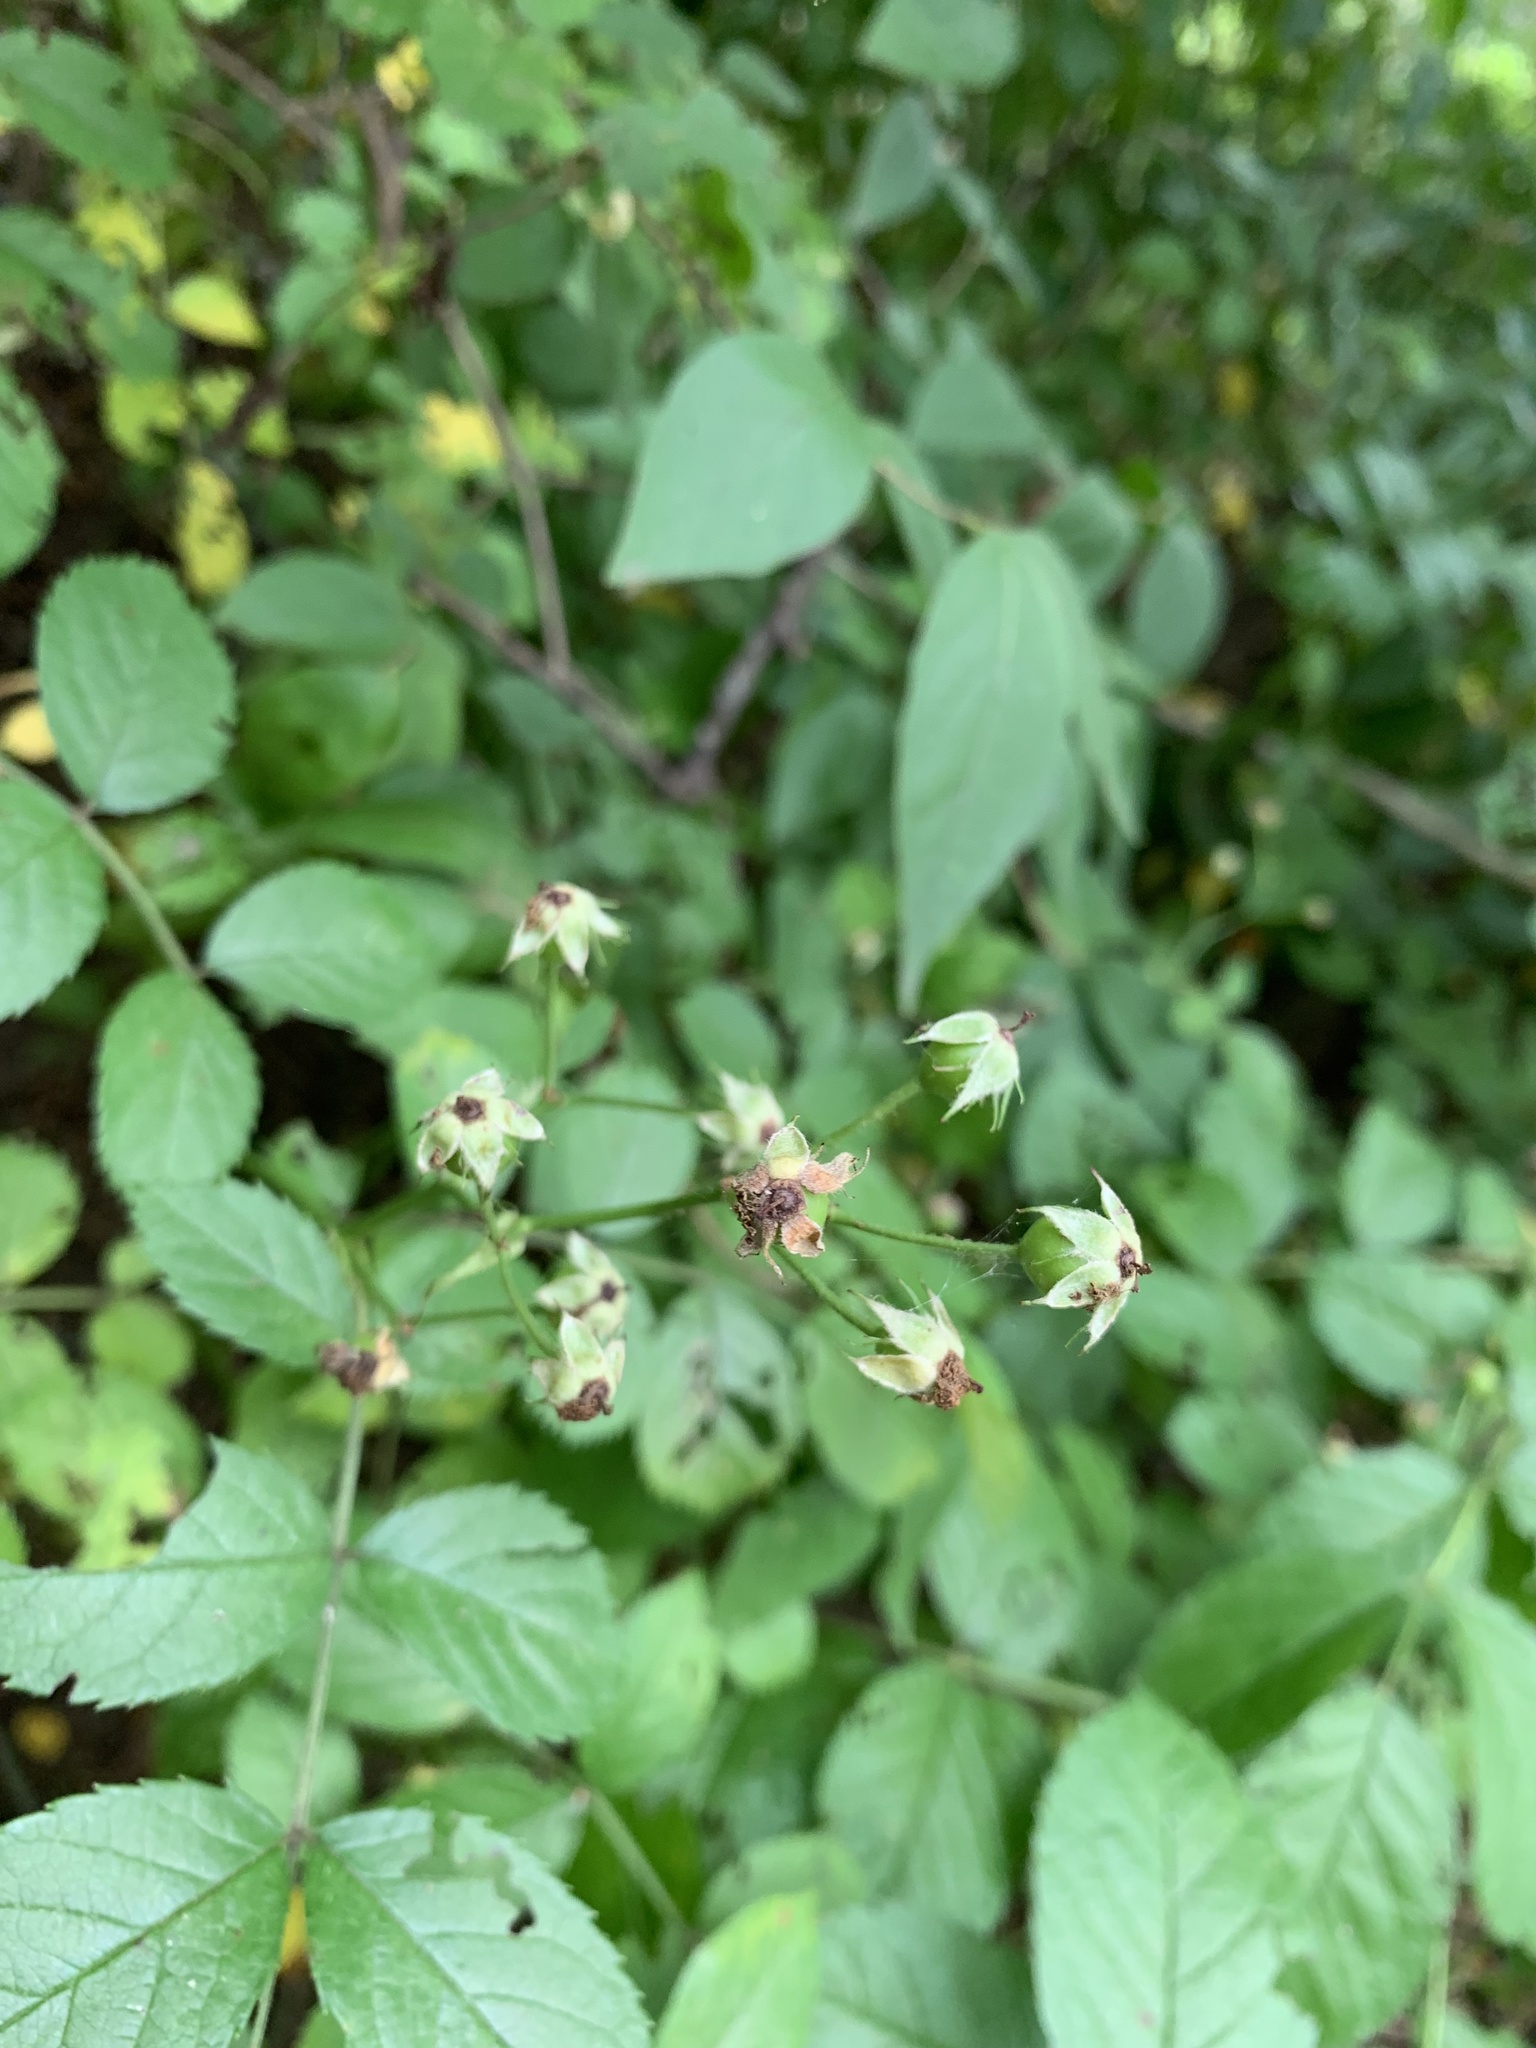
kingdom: Plantae
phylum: Tracheophyta
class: Magnoliopsida
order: Rosales
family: Rosaceae
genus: Rosa
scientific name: Rosa multiflora
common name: Multiflora rose
